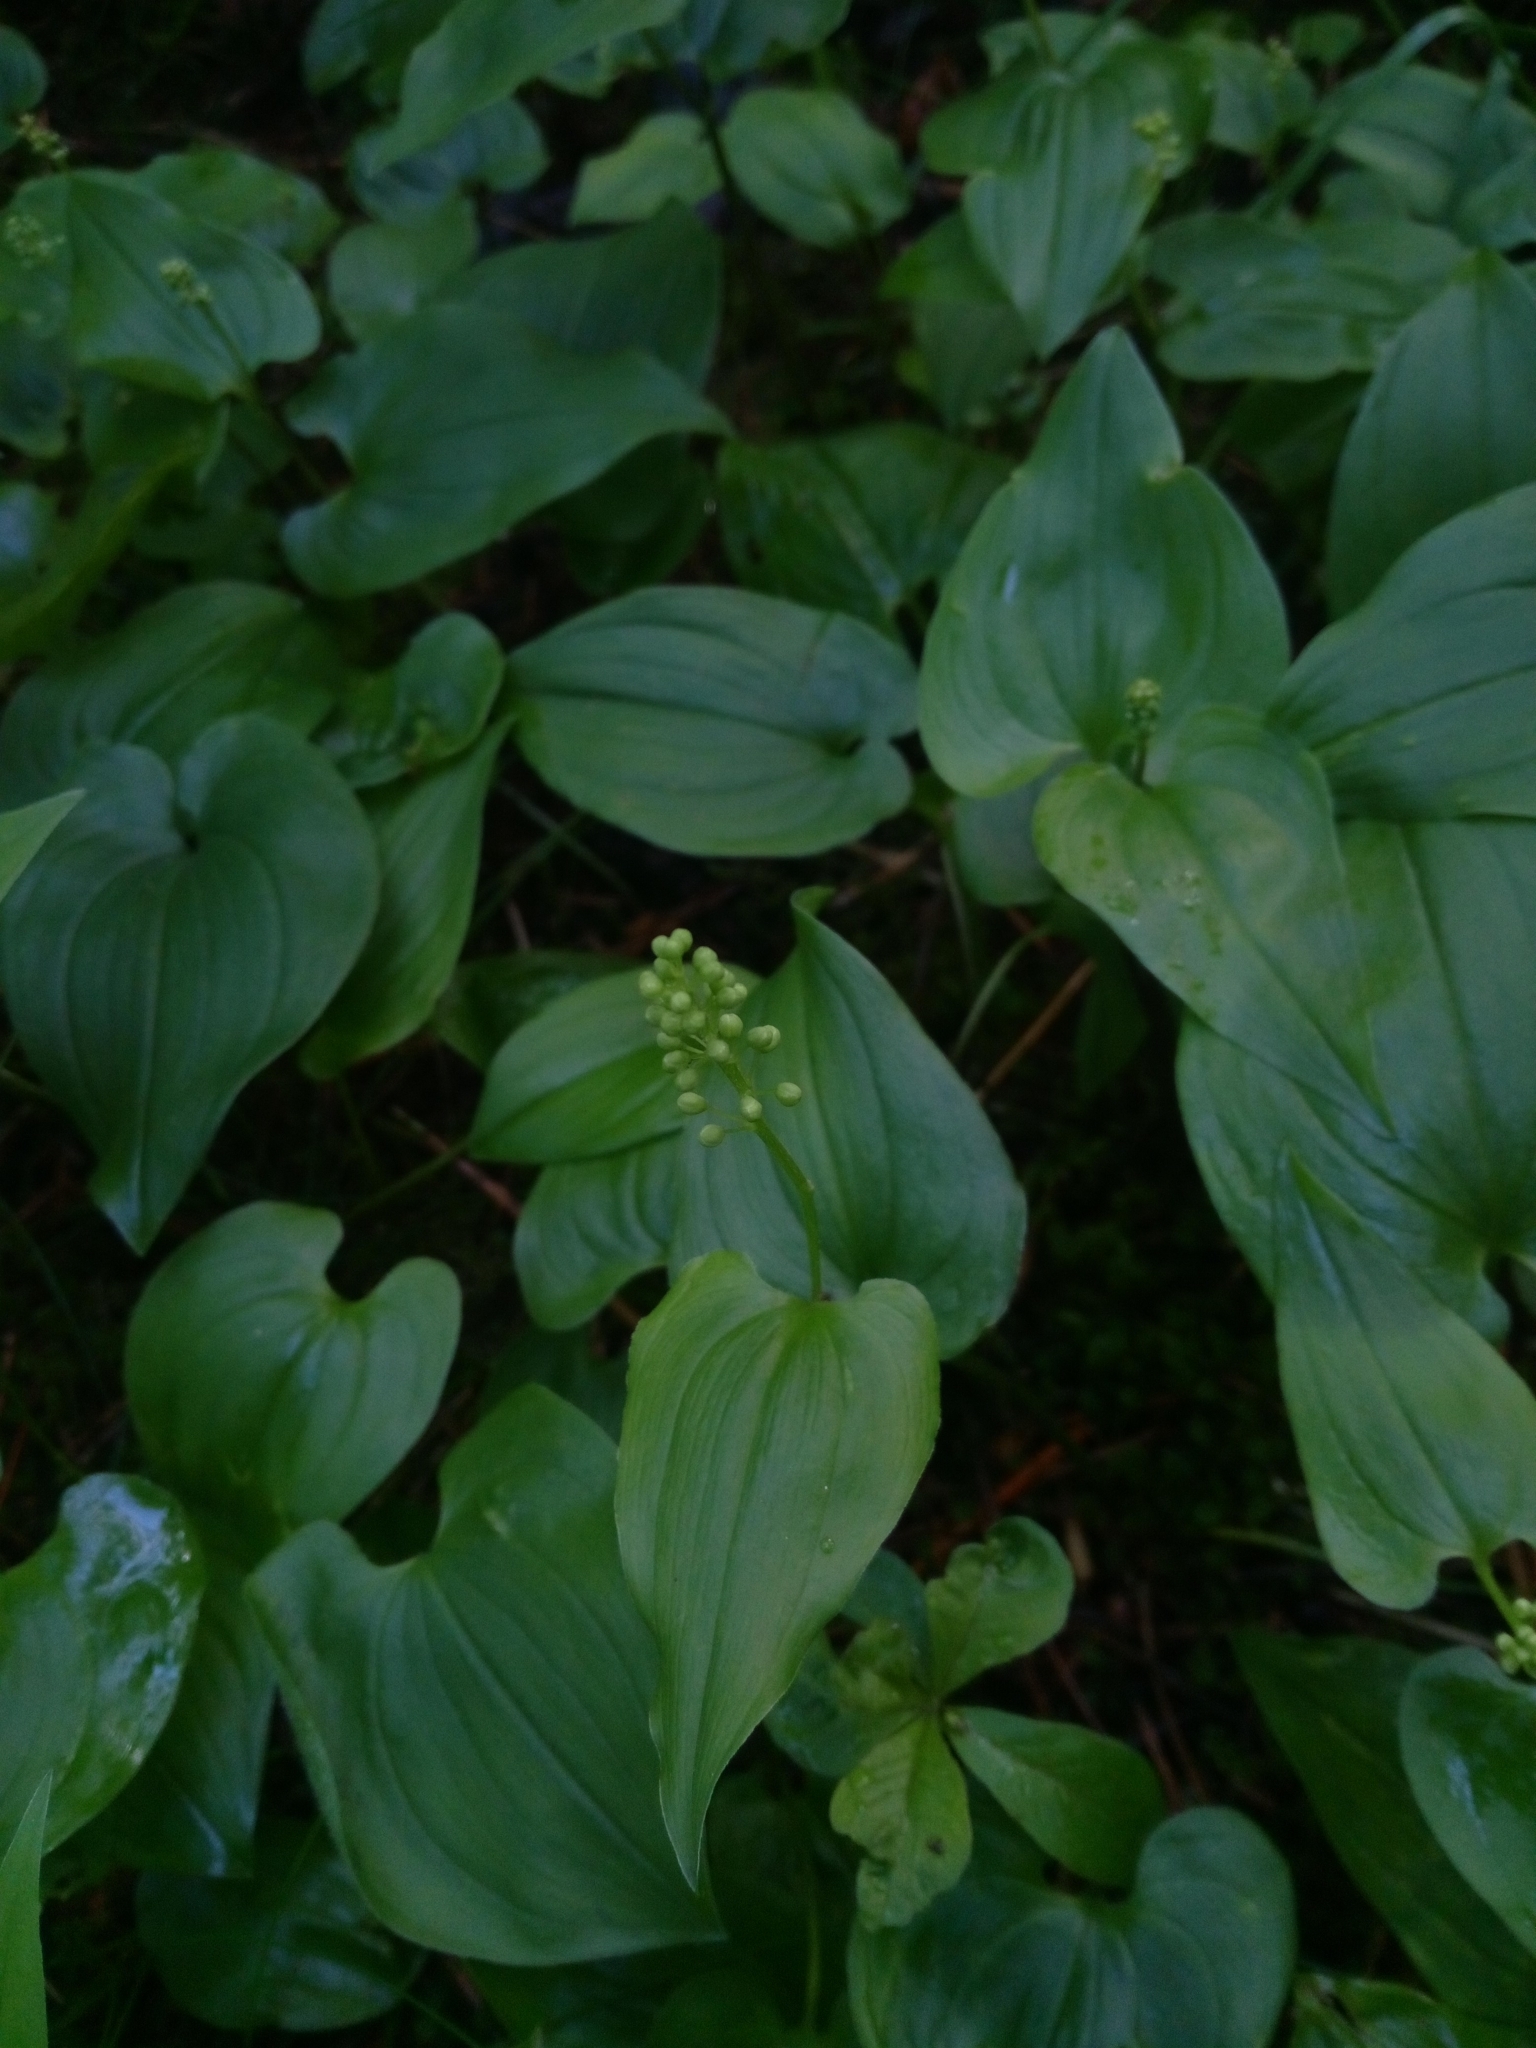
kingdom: Plantae
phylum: Tracheophyta
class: Liliopsida
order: Asparagales
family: Asparagaceae
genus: Maianthemum
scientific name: Maianthemum bifolium
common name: May lily
